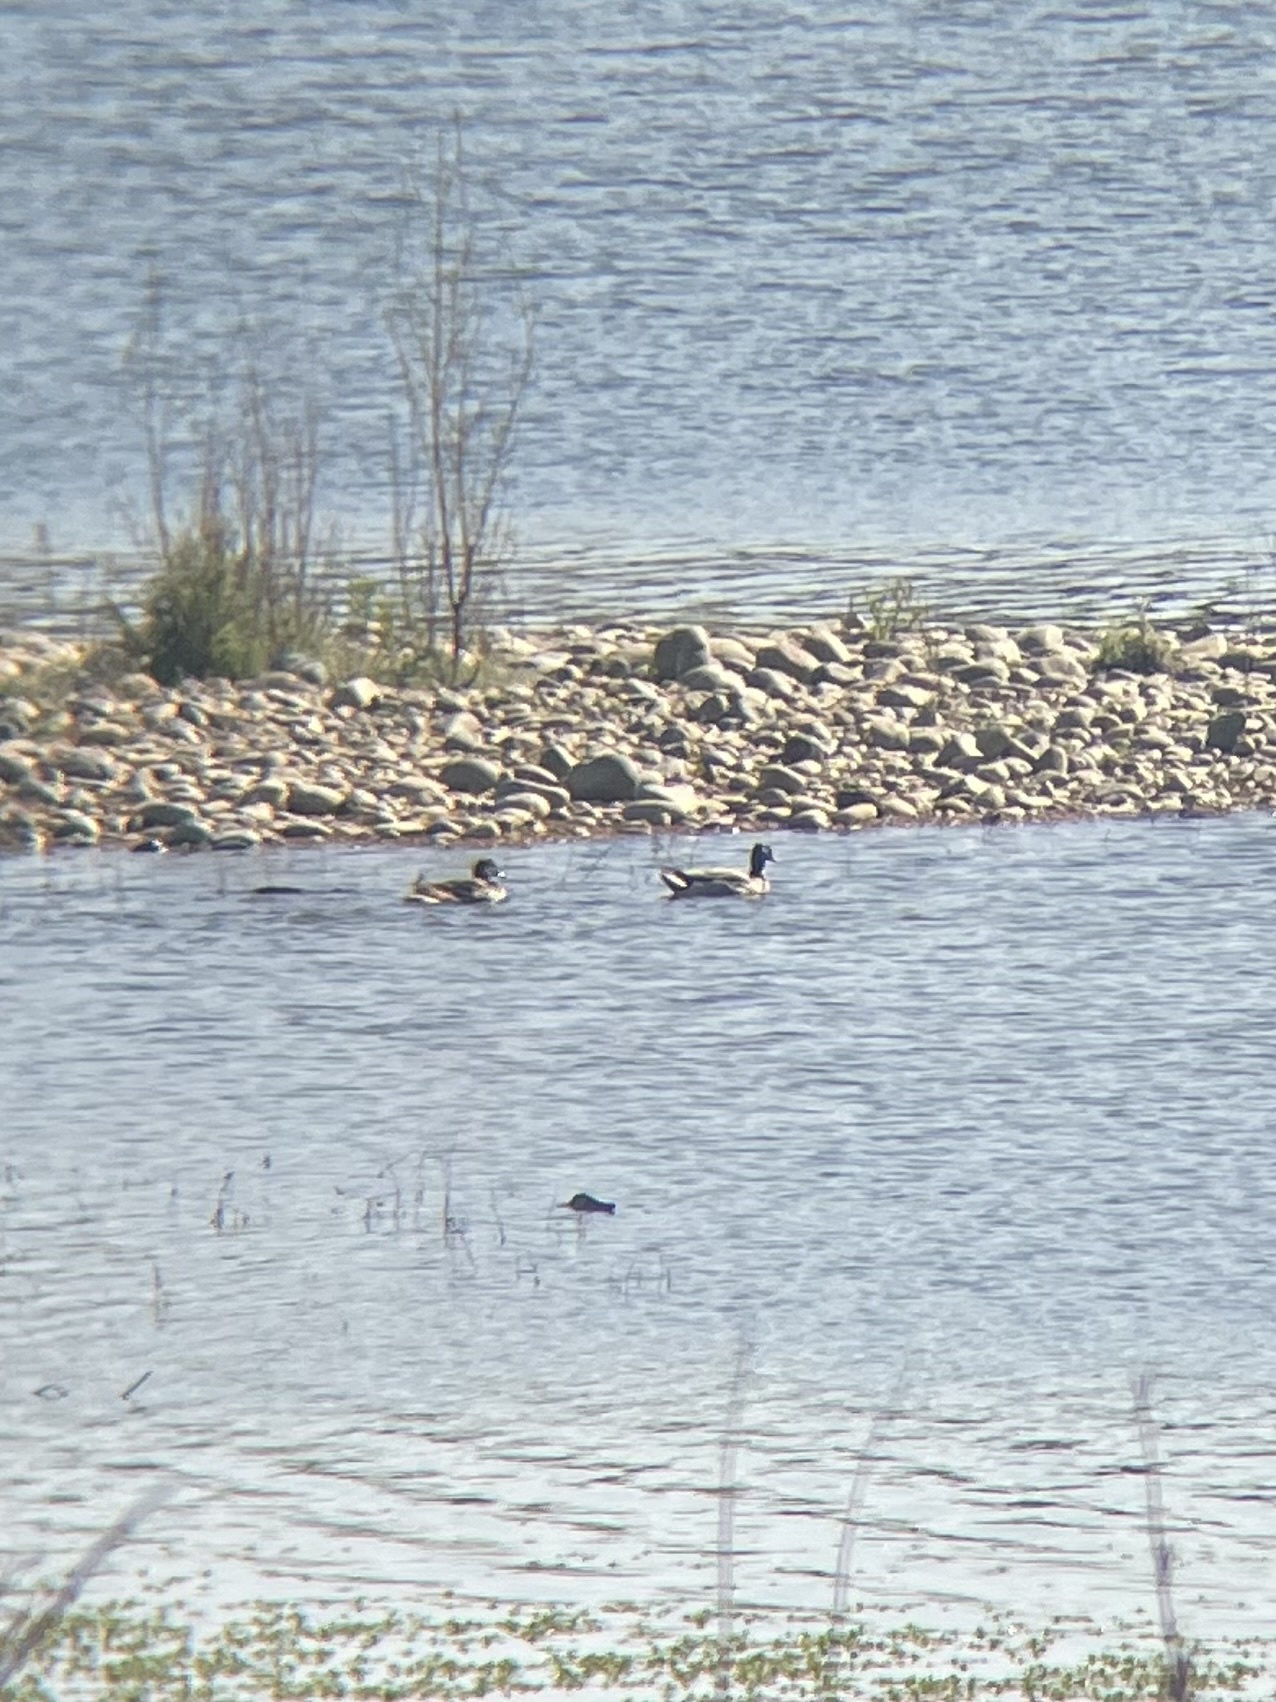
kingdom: Animalia
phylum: Chordata
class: Aves
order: Anseriformes
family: Anatidae
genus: Anas
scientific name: Anas platyrhynchos
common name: Mallard
